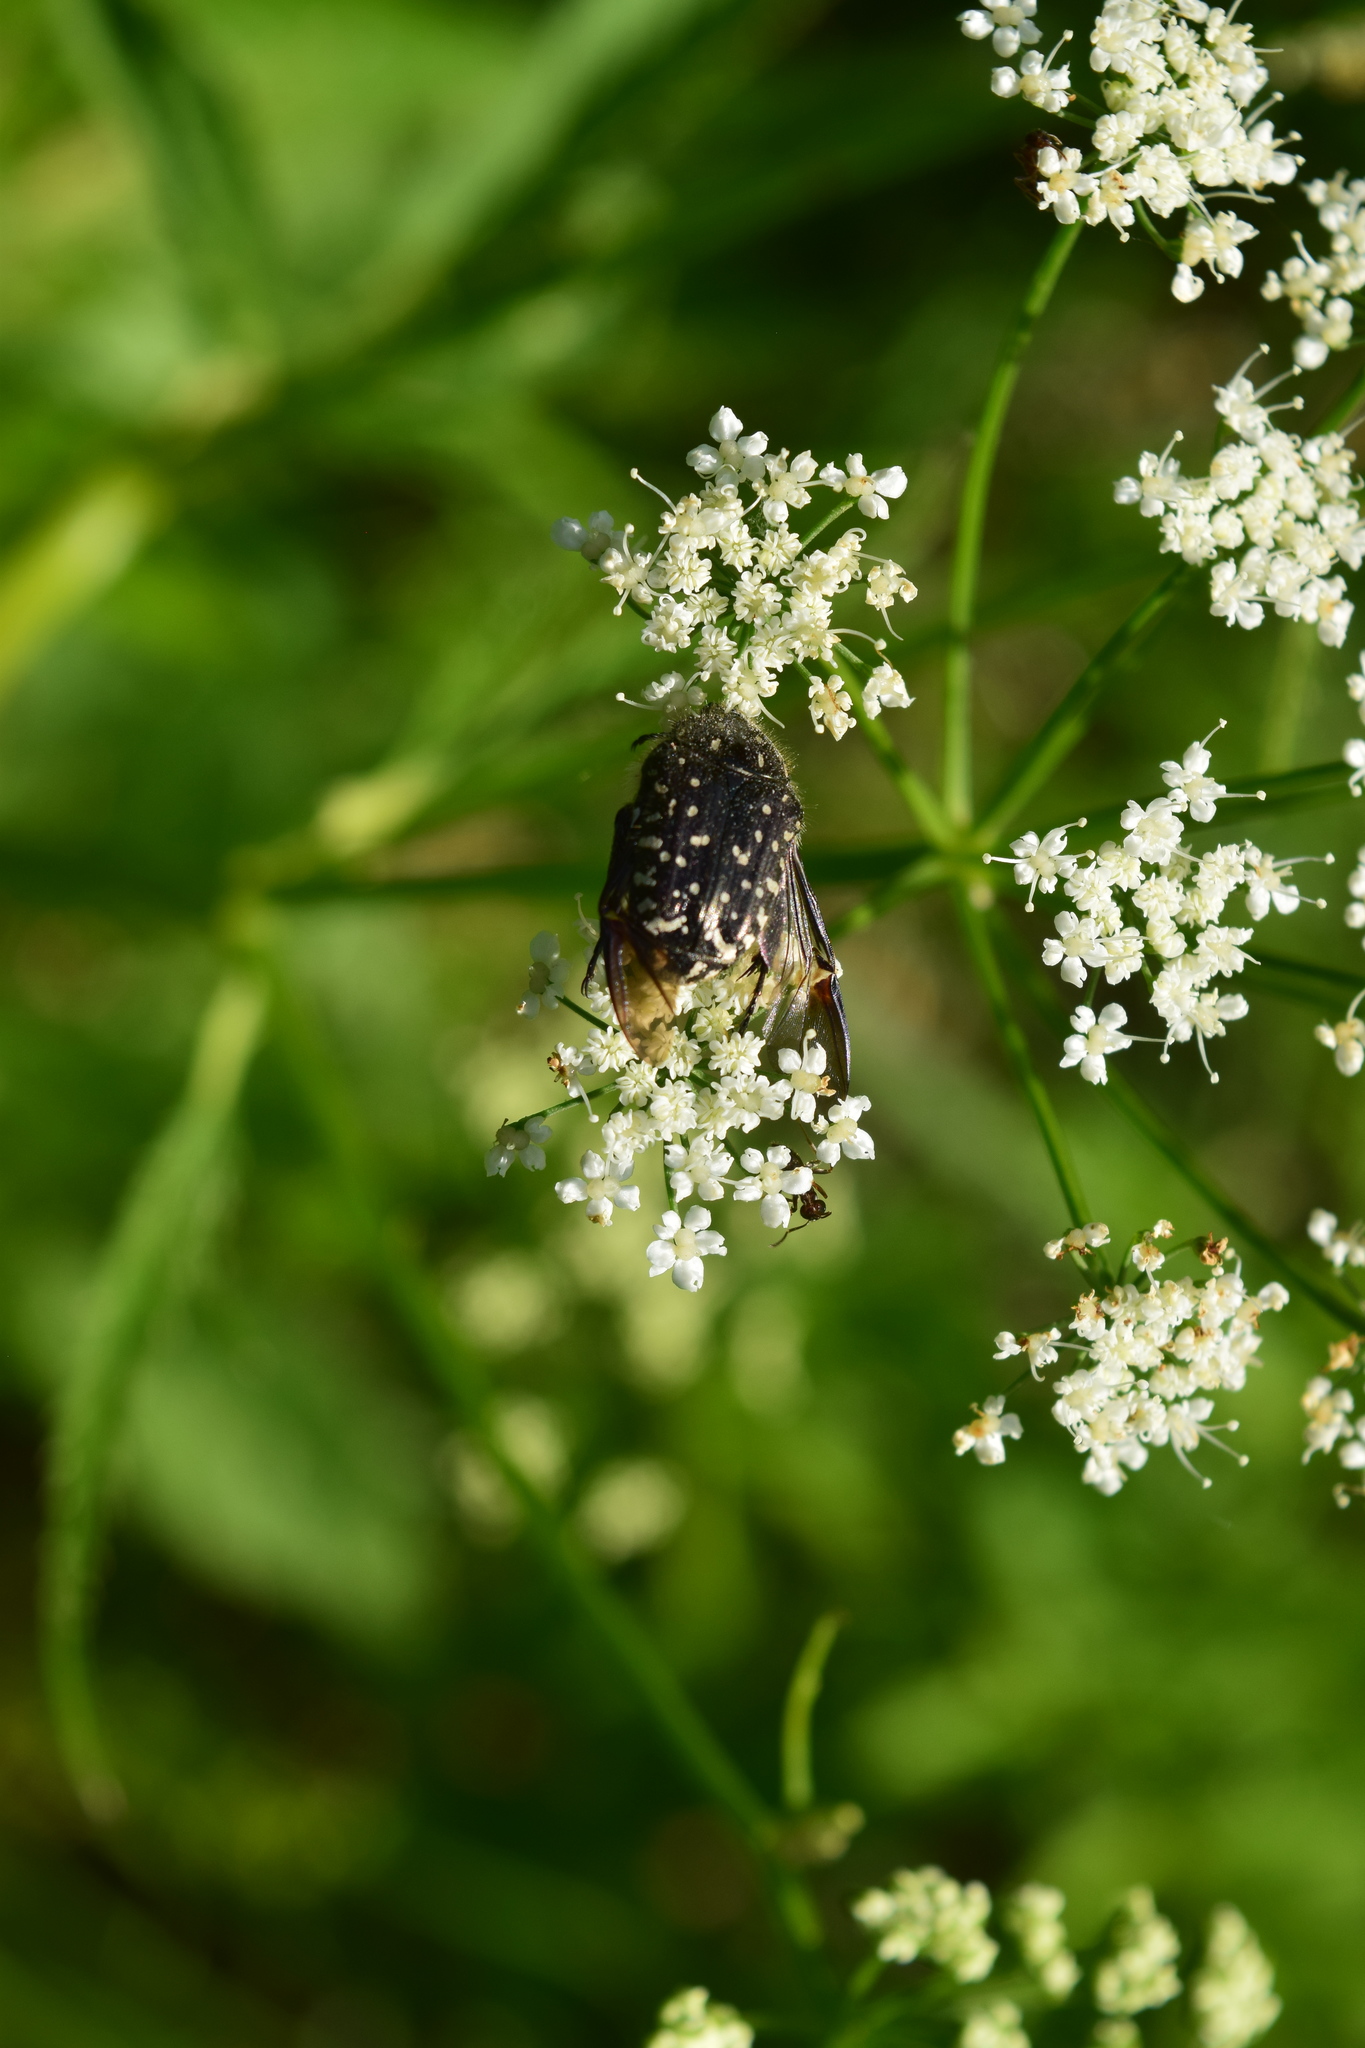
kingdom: Animalia
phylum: Arthropoda
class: Insecta
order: Coleoptera
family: Scarabaeidae
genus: Oxythyrea
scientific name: Oxythyrea funesta
